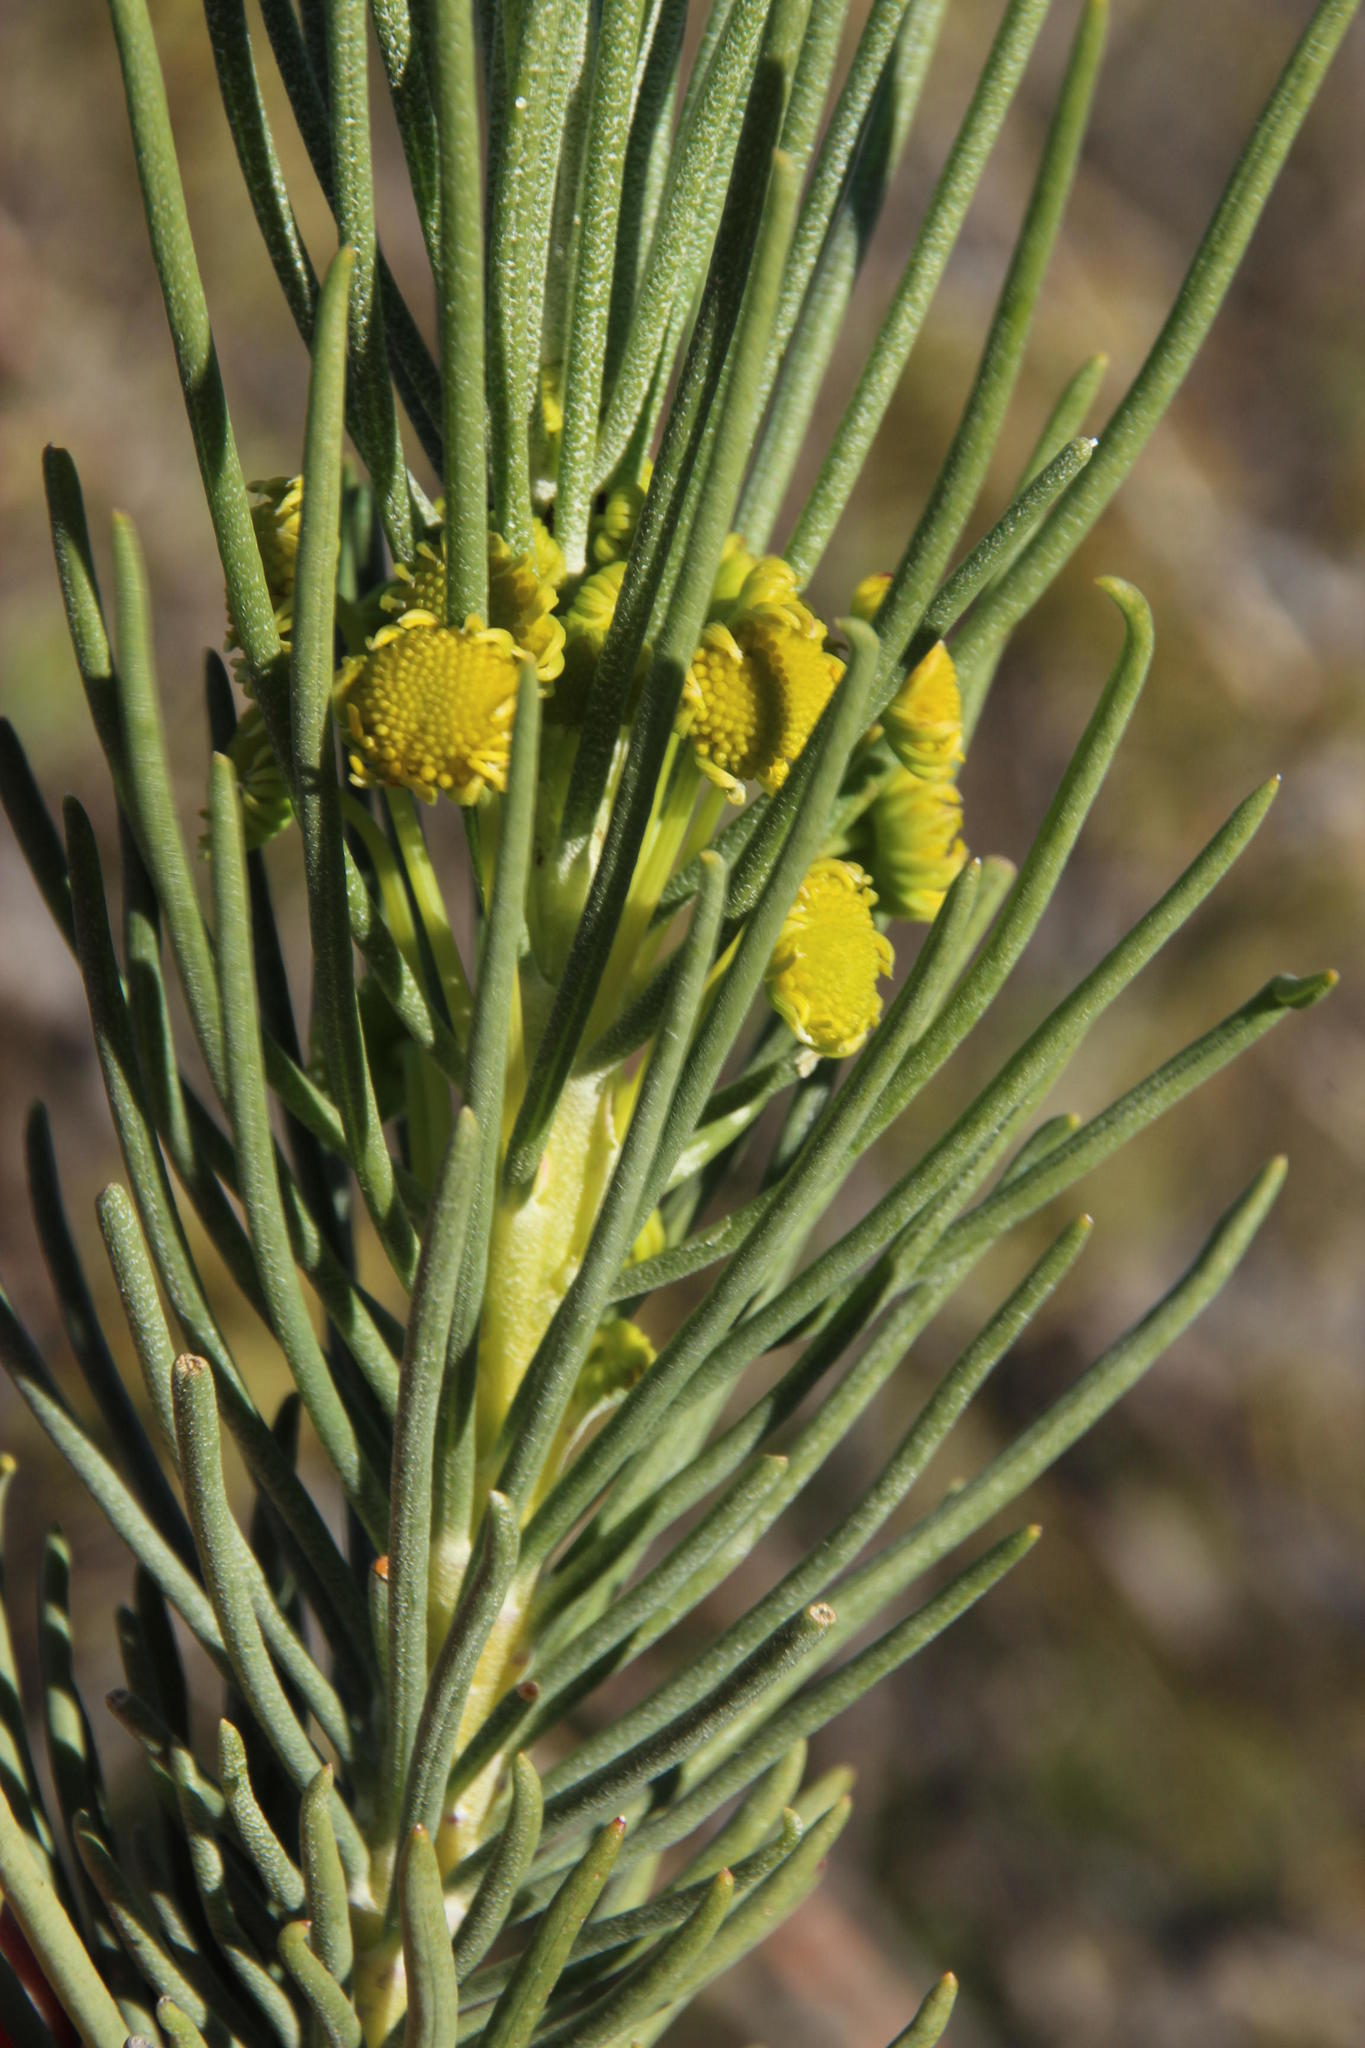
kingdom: Plantae
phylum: Tracheophyta
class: Magnoliopsida
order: Asterales
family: Asteraceae
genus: Euryops
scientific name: Euryops tenuissimus
